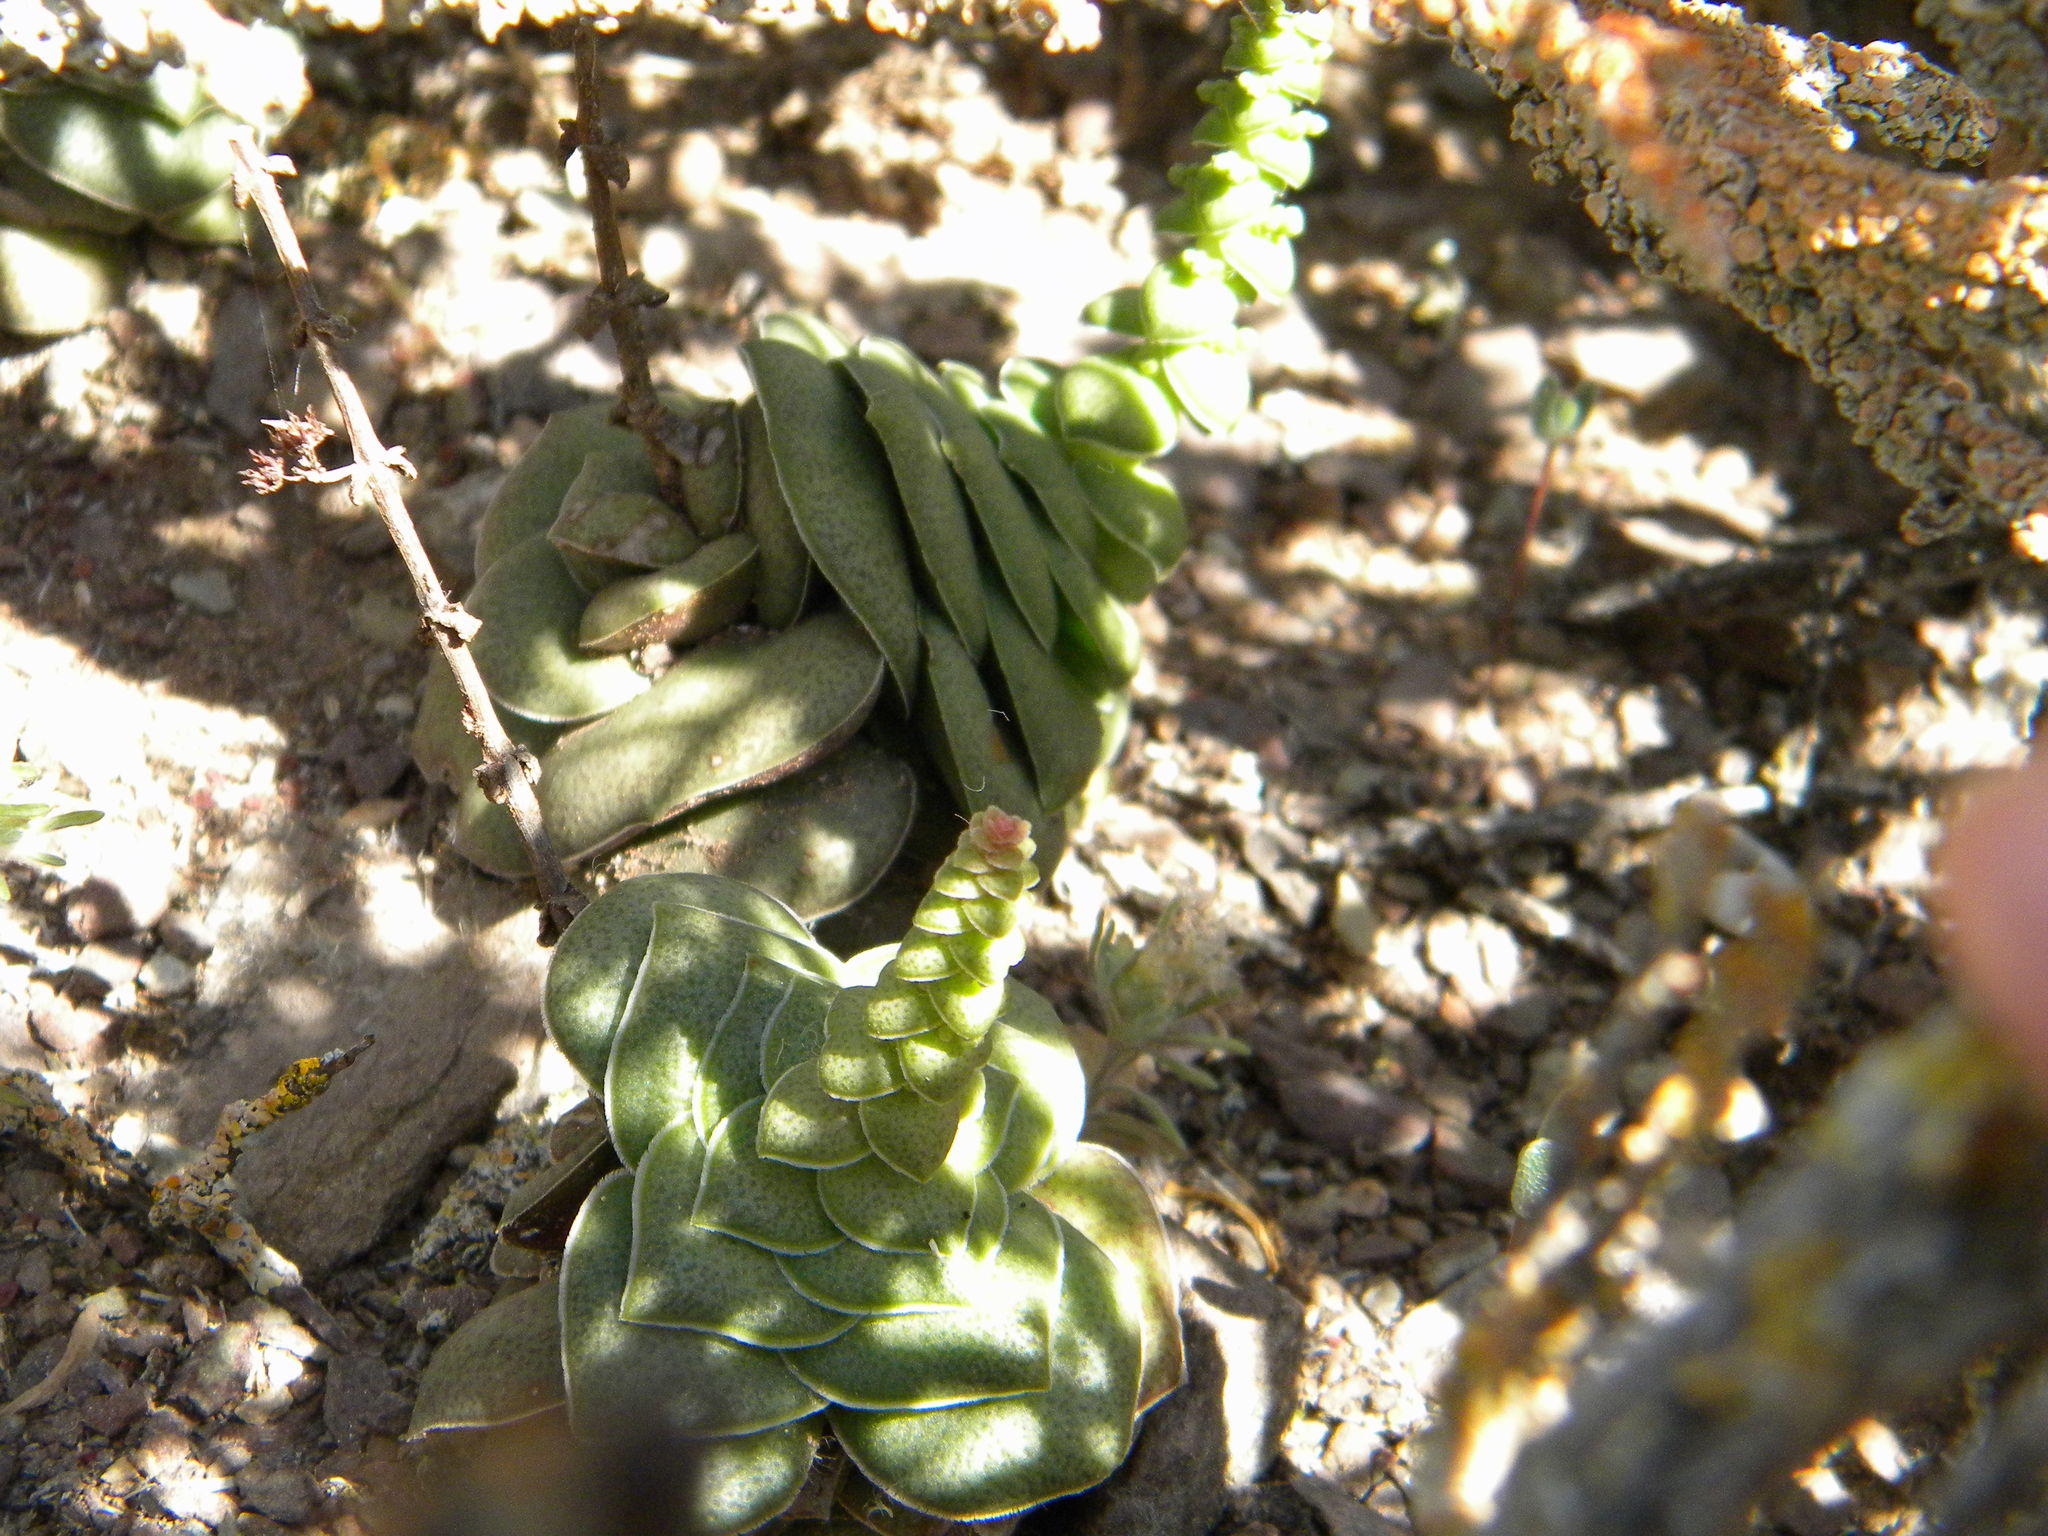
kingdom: Plantae
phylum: Tracheophyta
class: Magnoliopsida
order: Saxifragales
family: Crassulaceae
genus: Crassula
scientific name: Crassula hemisphaerica
